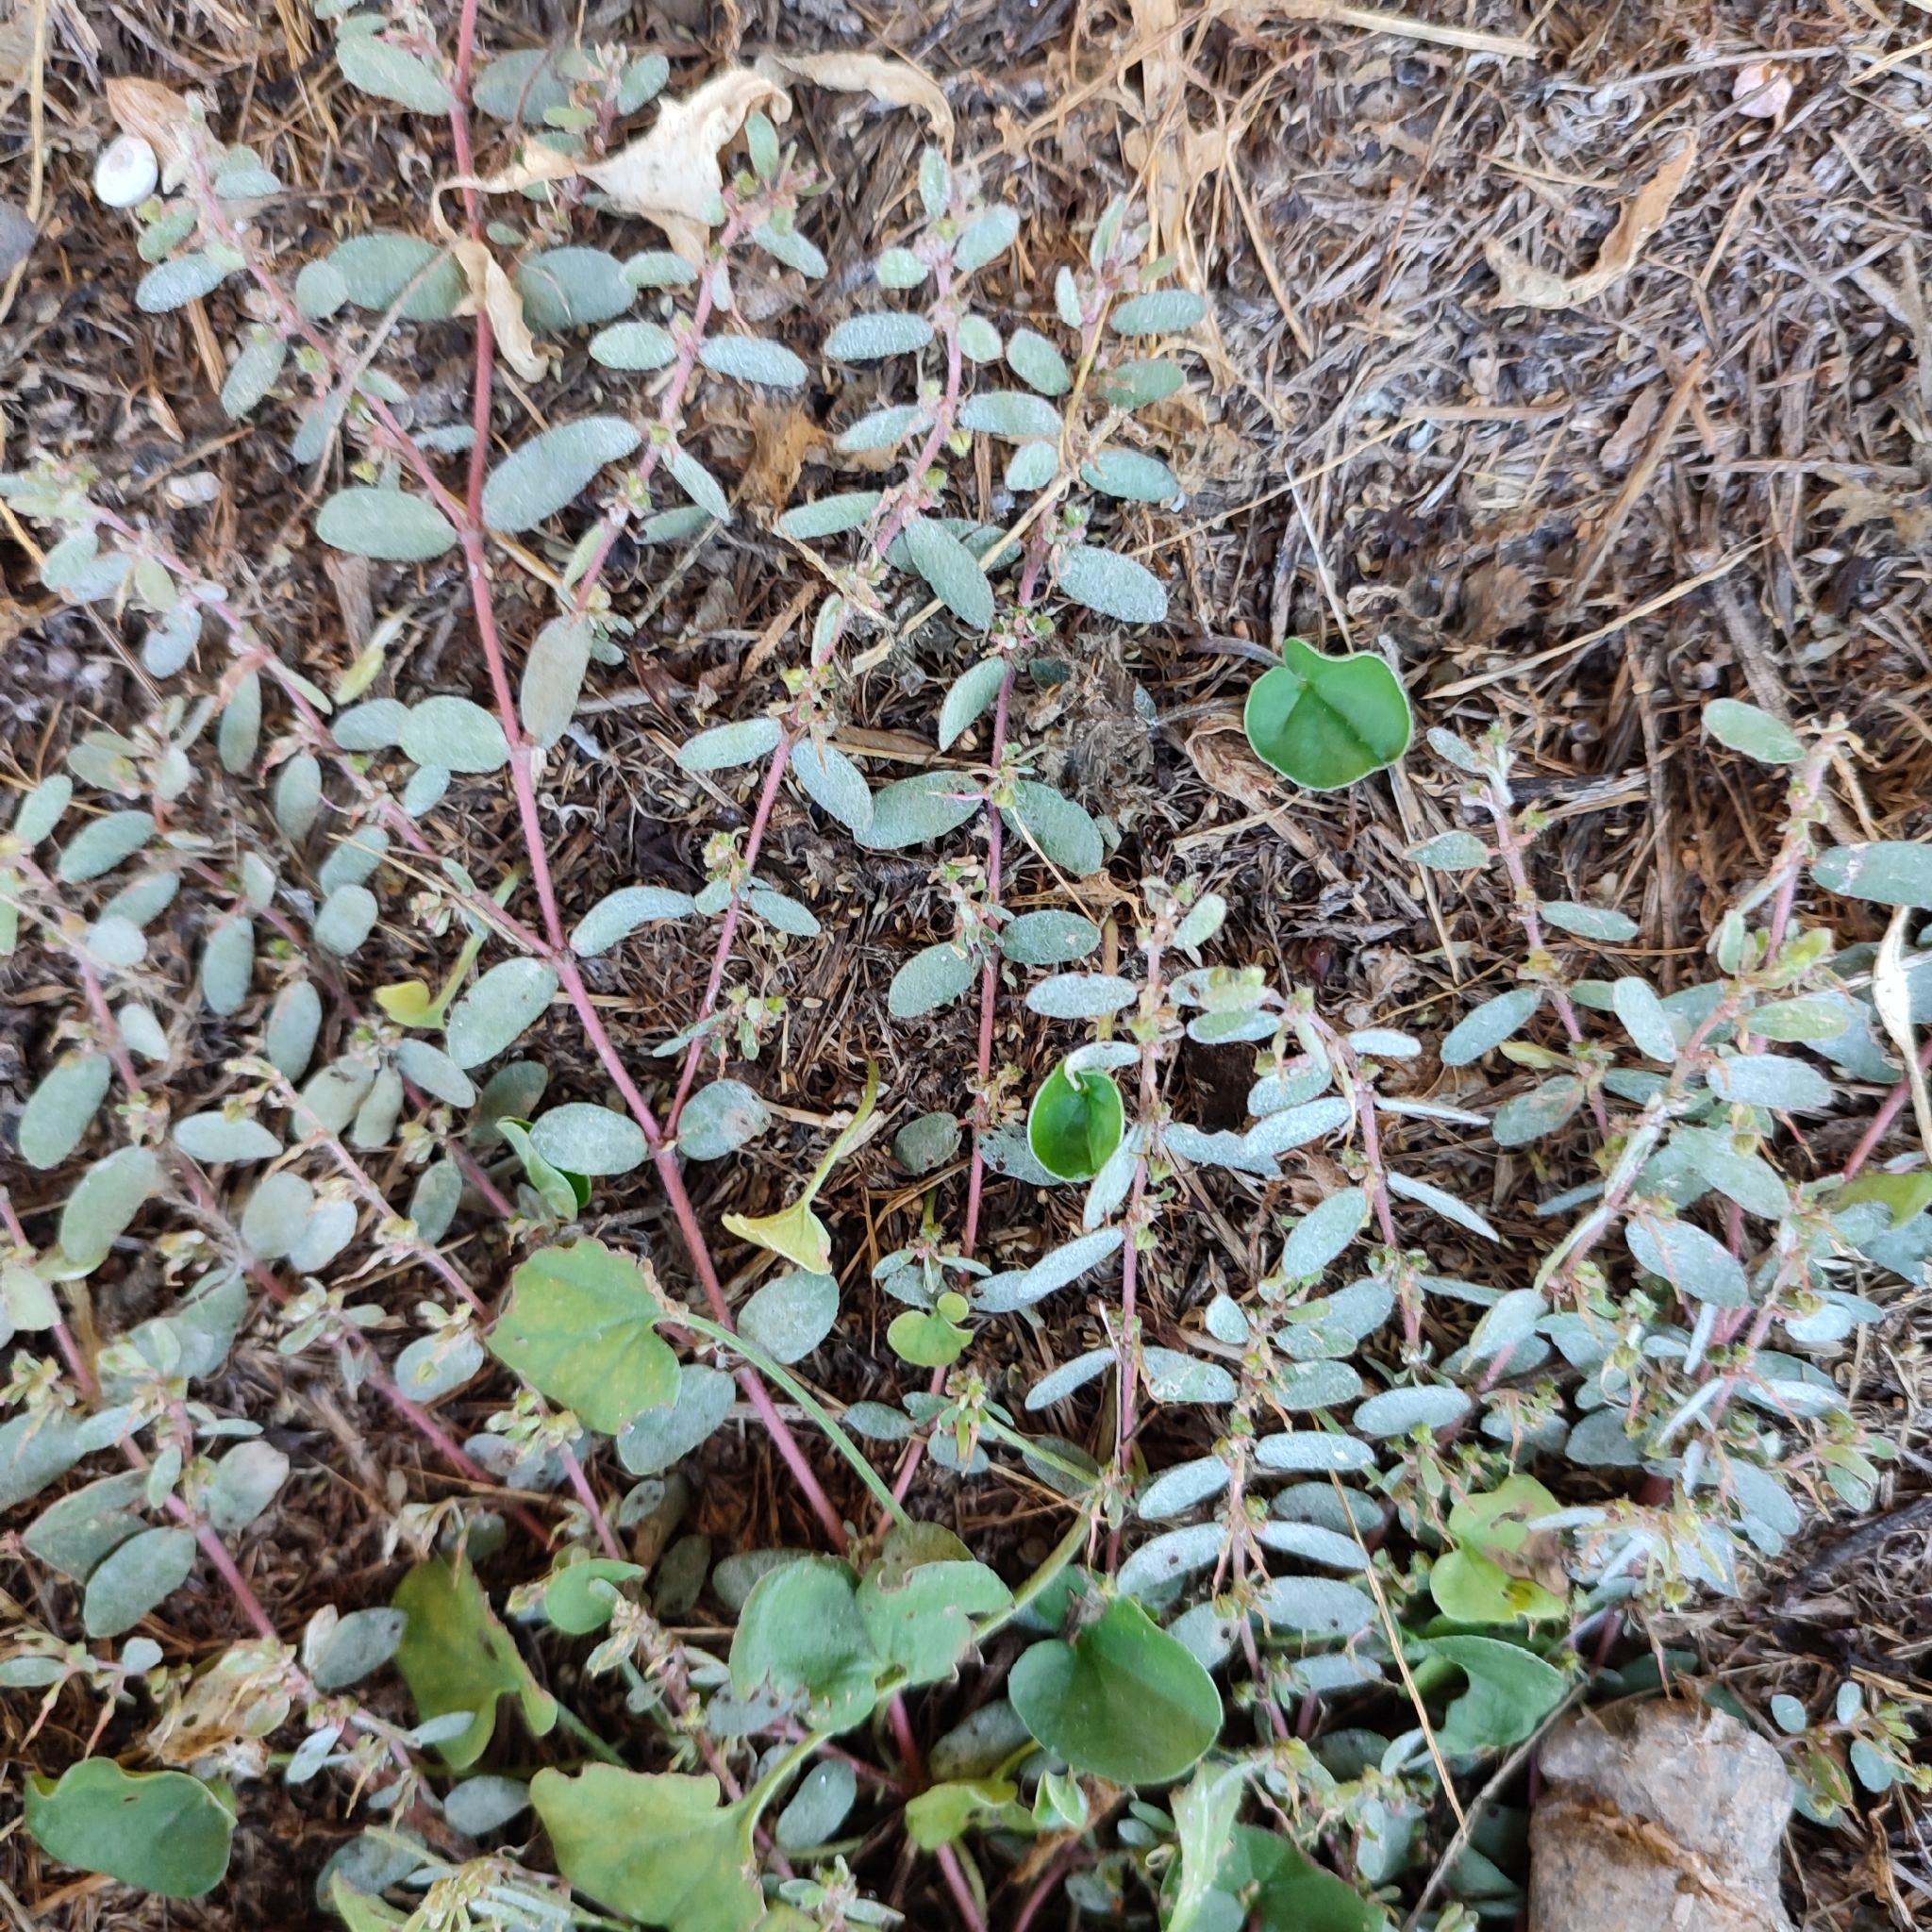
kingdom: Plantae
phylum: Tracheophyta
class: Magnoliopsida
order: Malpighiales
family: Euphorbiaceae
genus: Euphorbia
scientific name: Euphorbia prostrata
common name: Prostrate sandmat
